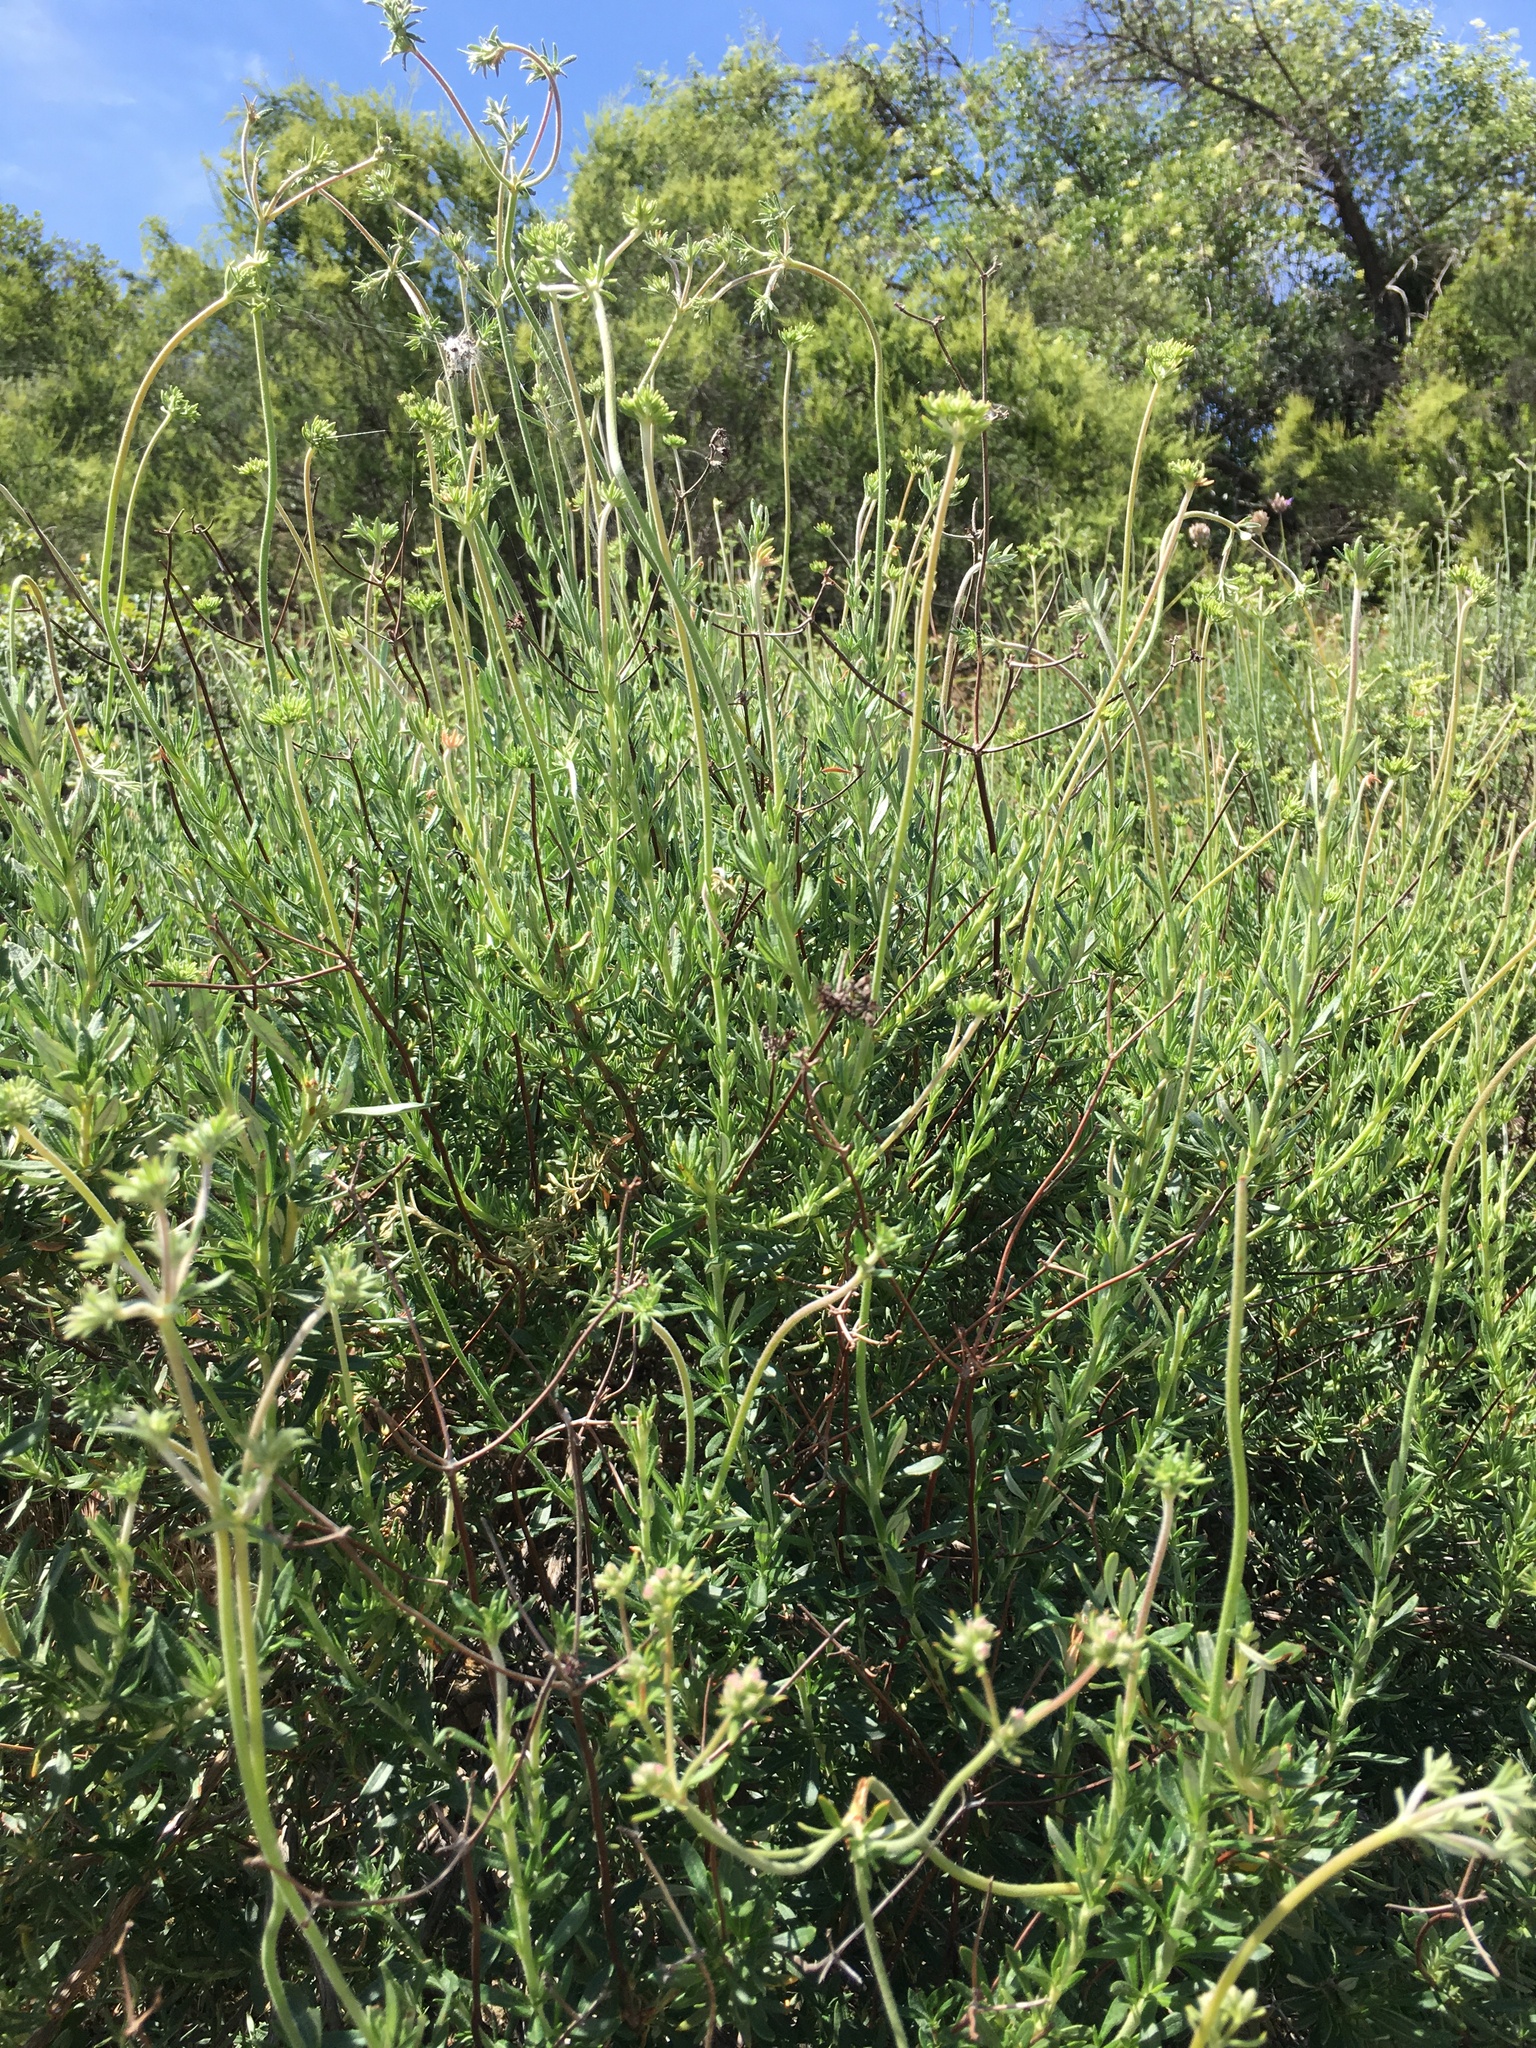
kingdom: Plantae
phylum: Tracheophyta
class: Magnoliopsida
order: Caryophyllales
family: Polygonaceae
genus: Eriogonum
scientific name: Eriogonum fasciculatum
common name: California wild buckwheat
